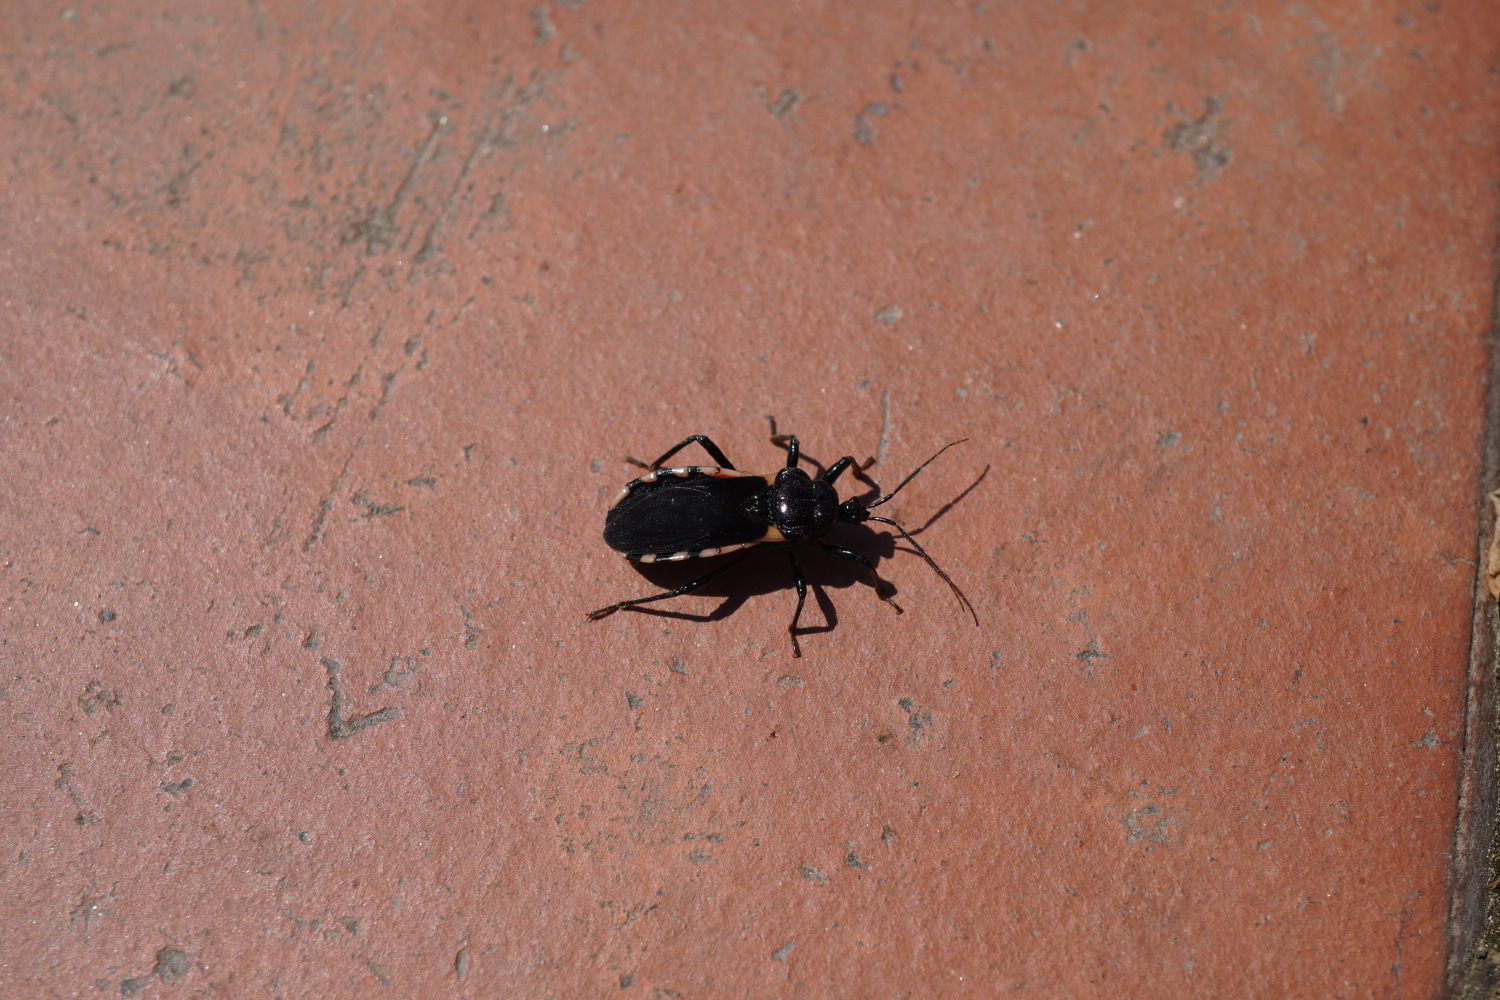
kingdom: Animalia
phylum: Arthropoda
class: Insecta
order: Hemiptera
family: Reduviidae
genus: Ectrychotes
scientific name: Ectrychotes andreae
